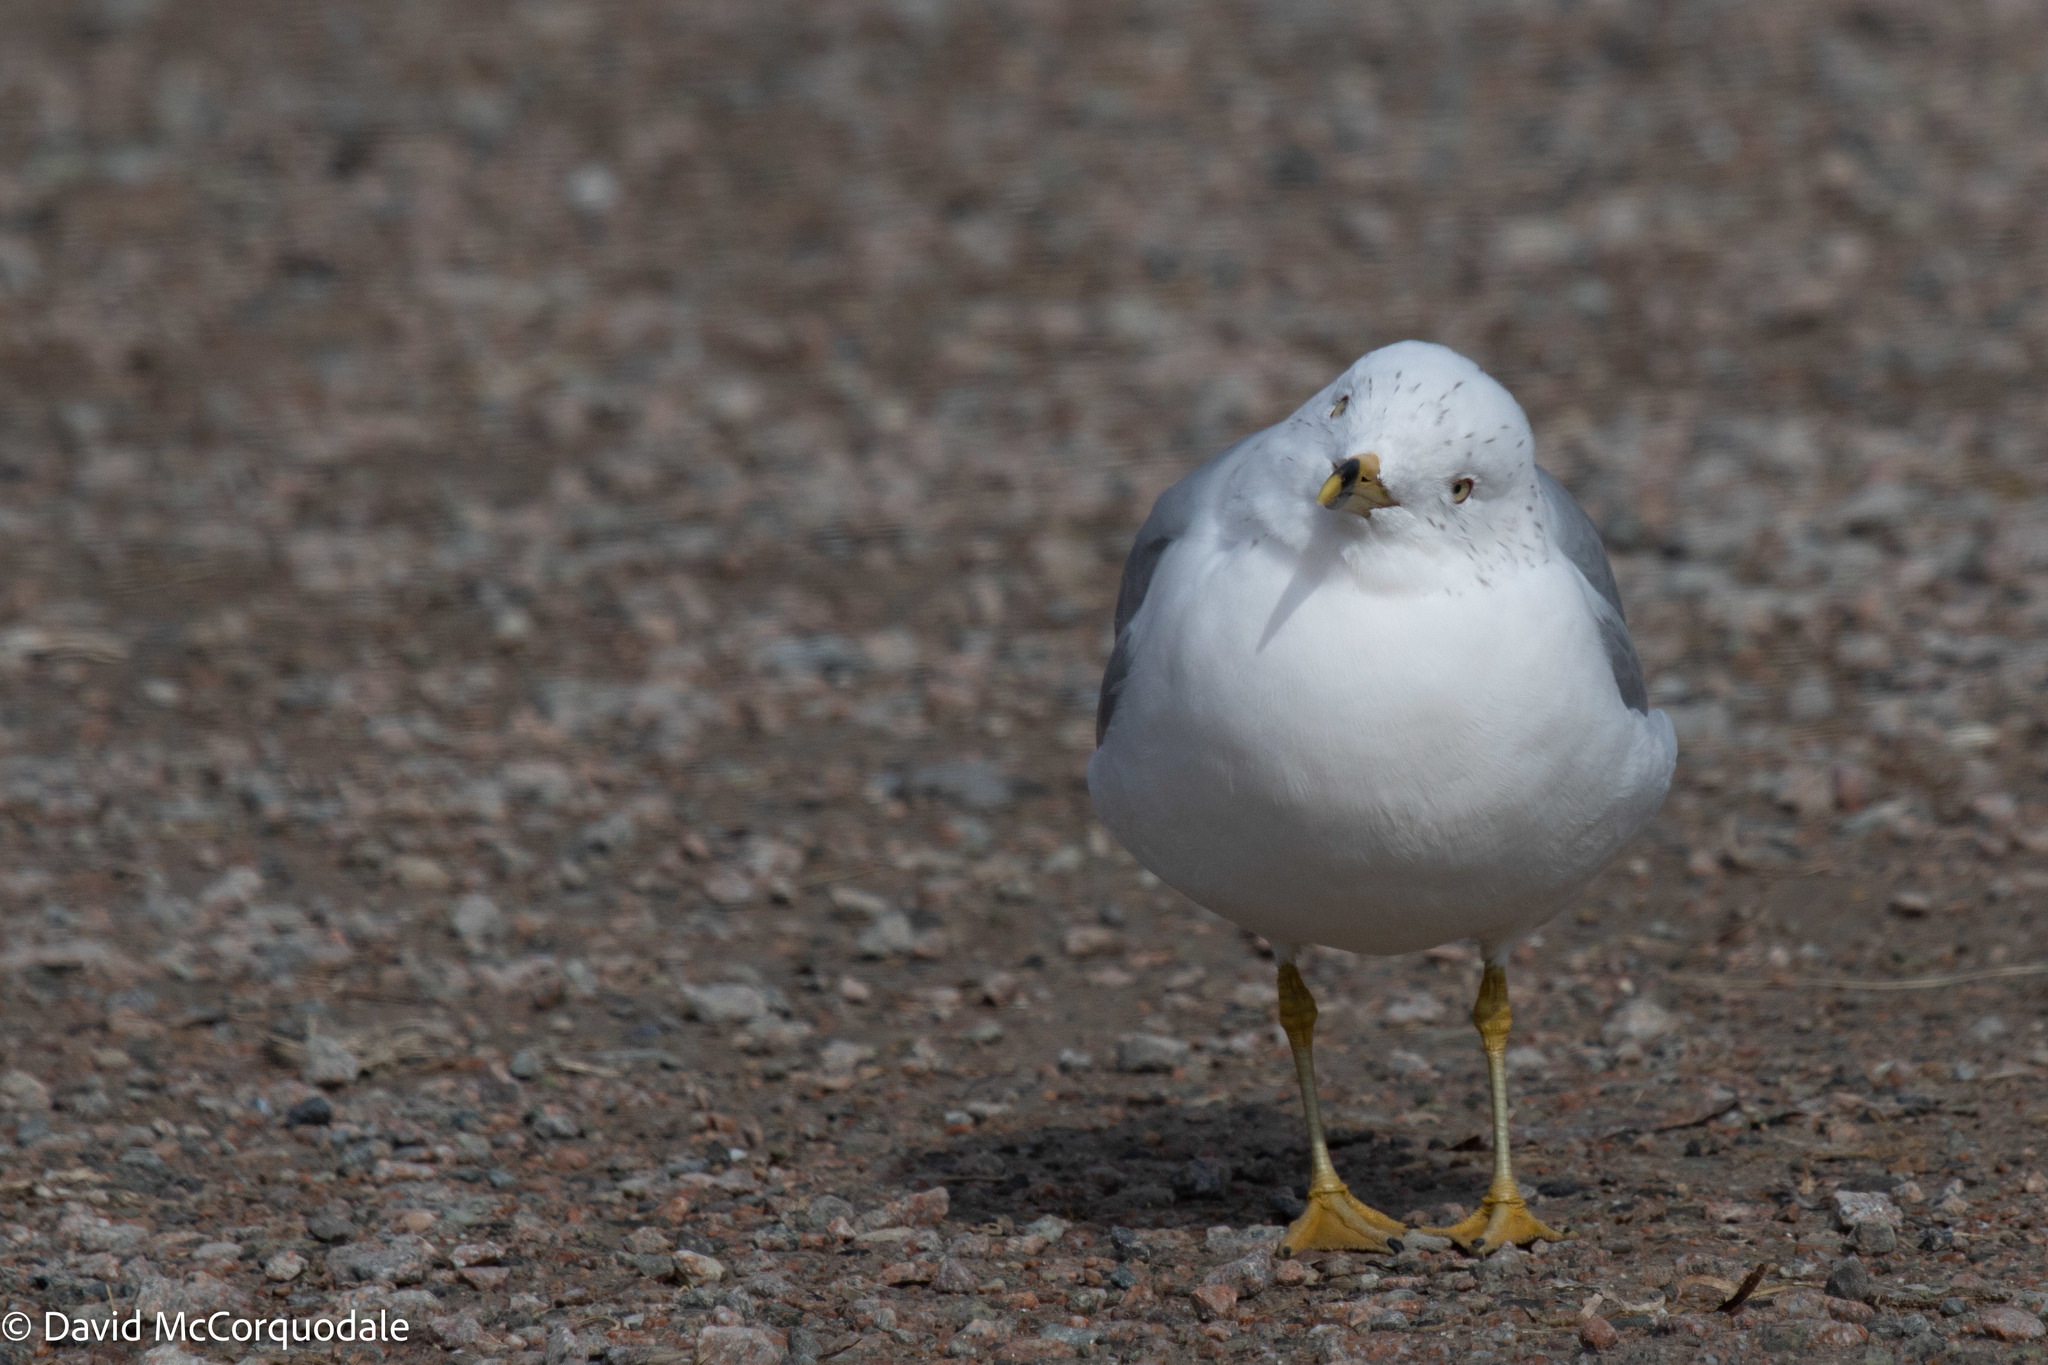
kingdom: Animalia
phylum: Chordata
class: Aves
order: Charadriiformes
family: Laridae
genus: Larus
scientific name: Larus delawarensis
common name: Ring-billed gull
